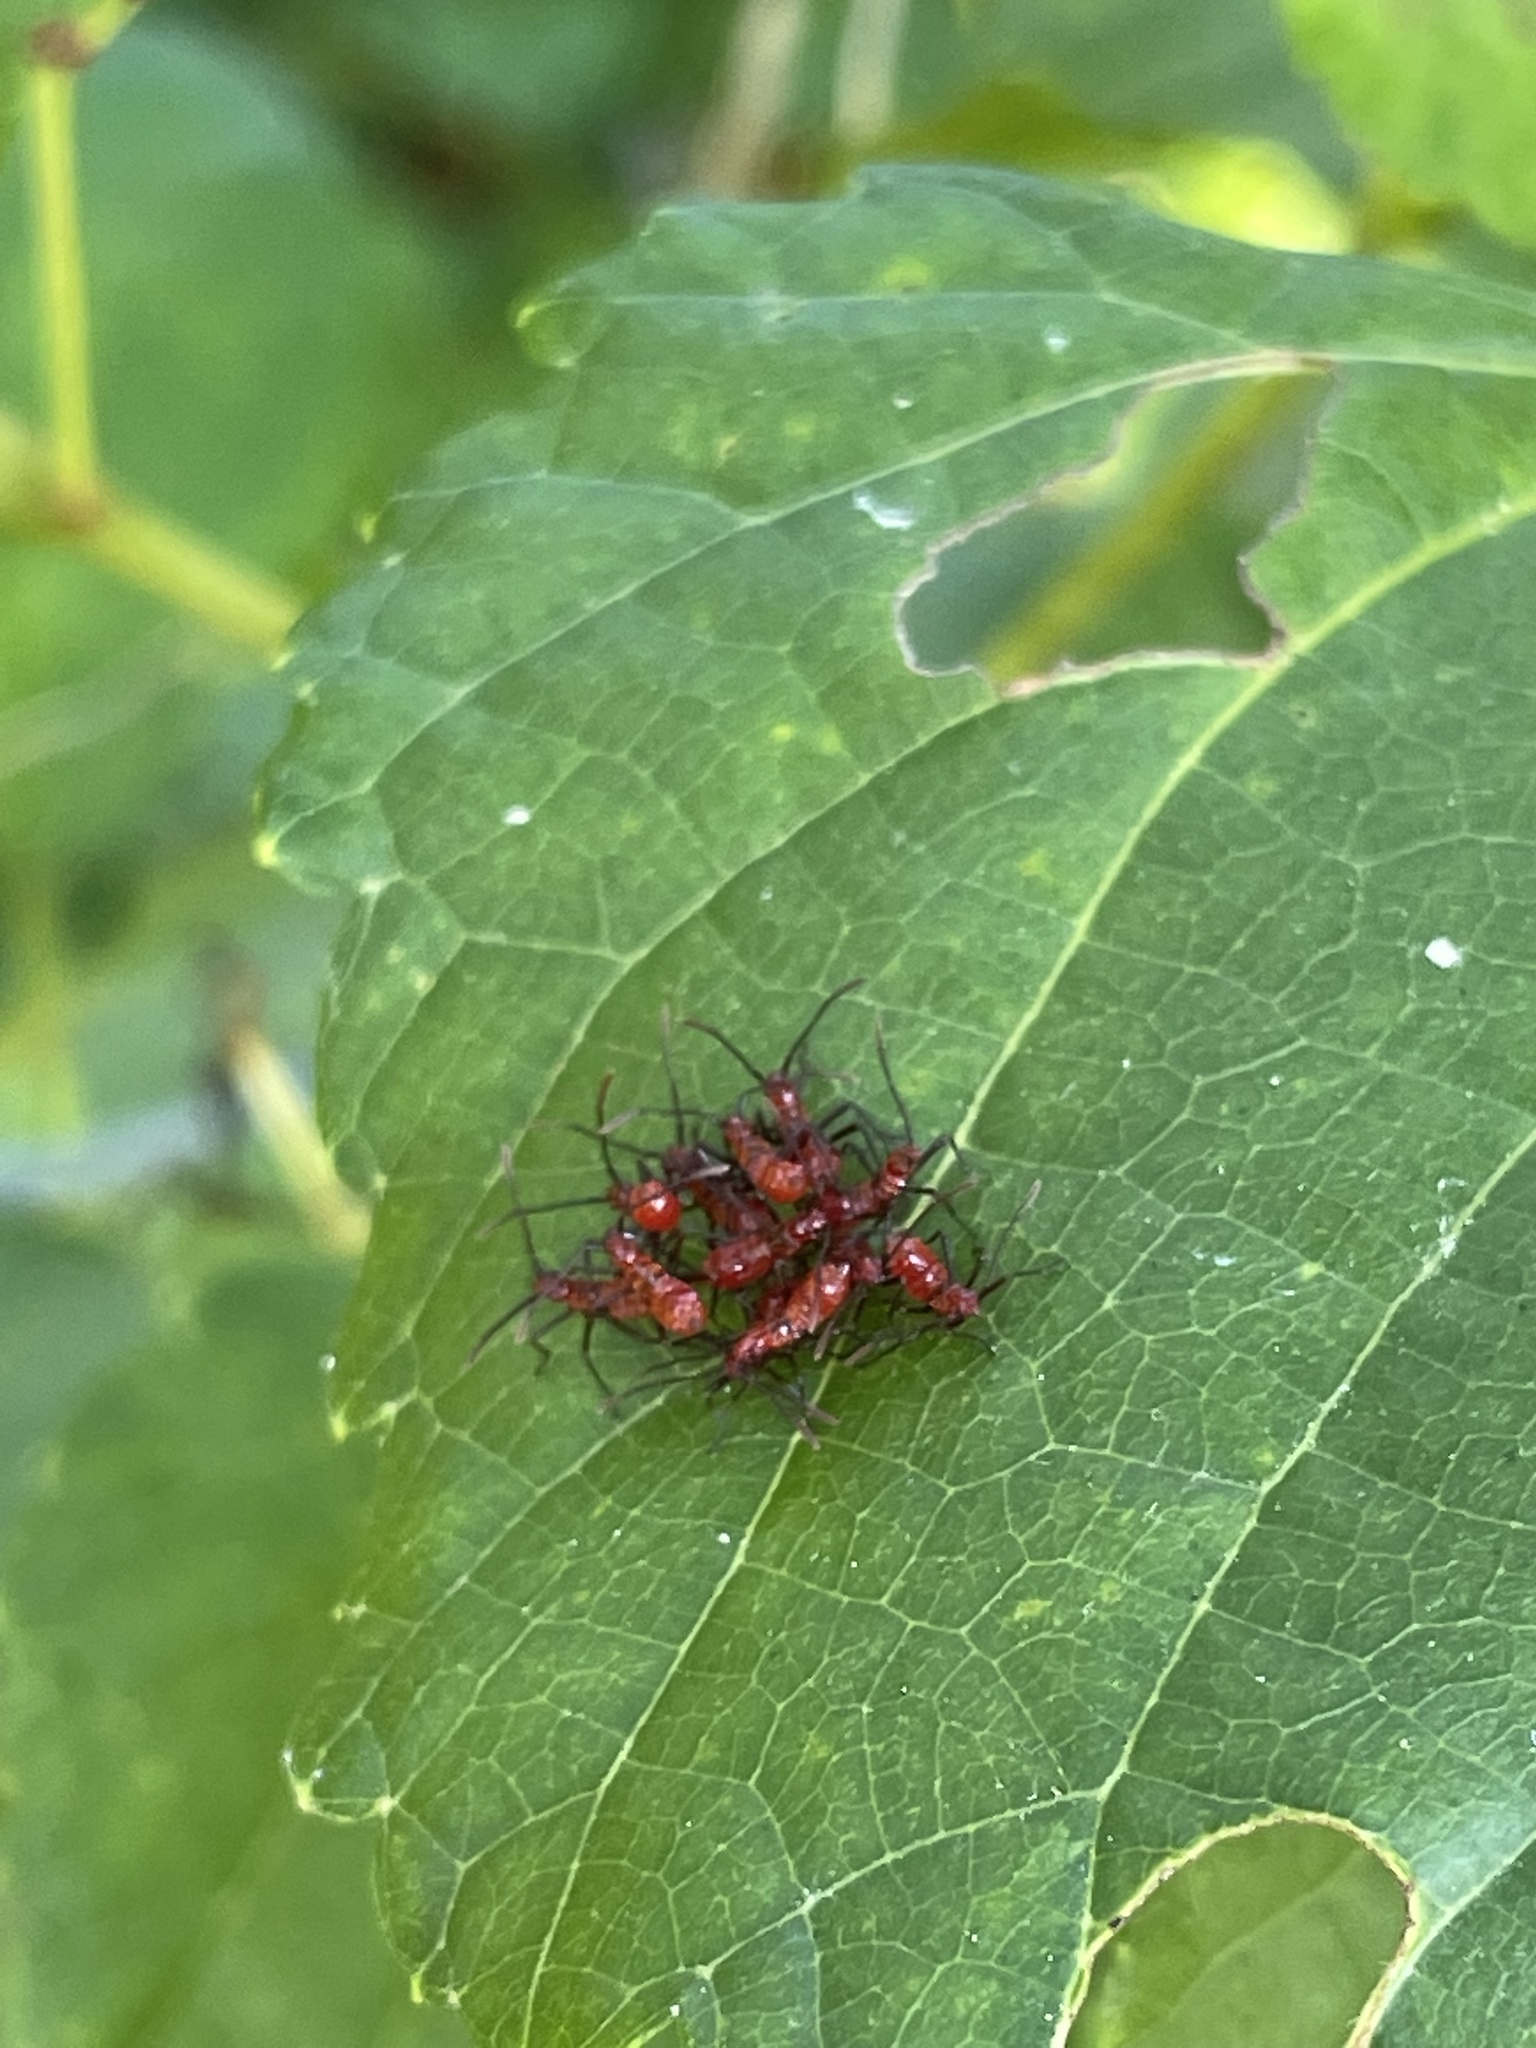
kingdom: Animalia
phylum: Arthropoda
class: Insecta
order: Hemiptera
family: Reduviidae
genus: Arilus
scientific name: Arilus cristatus
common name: North american wheel bug
